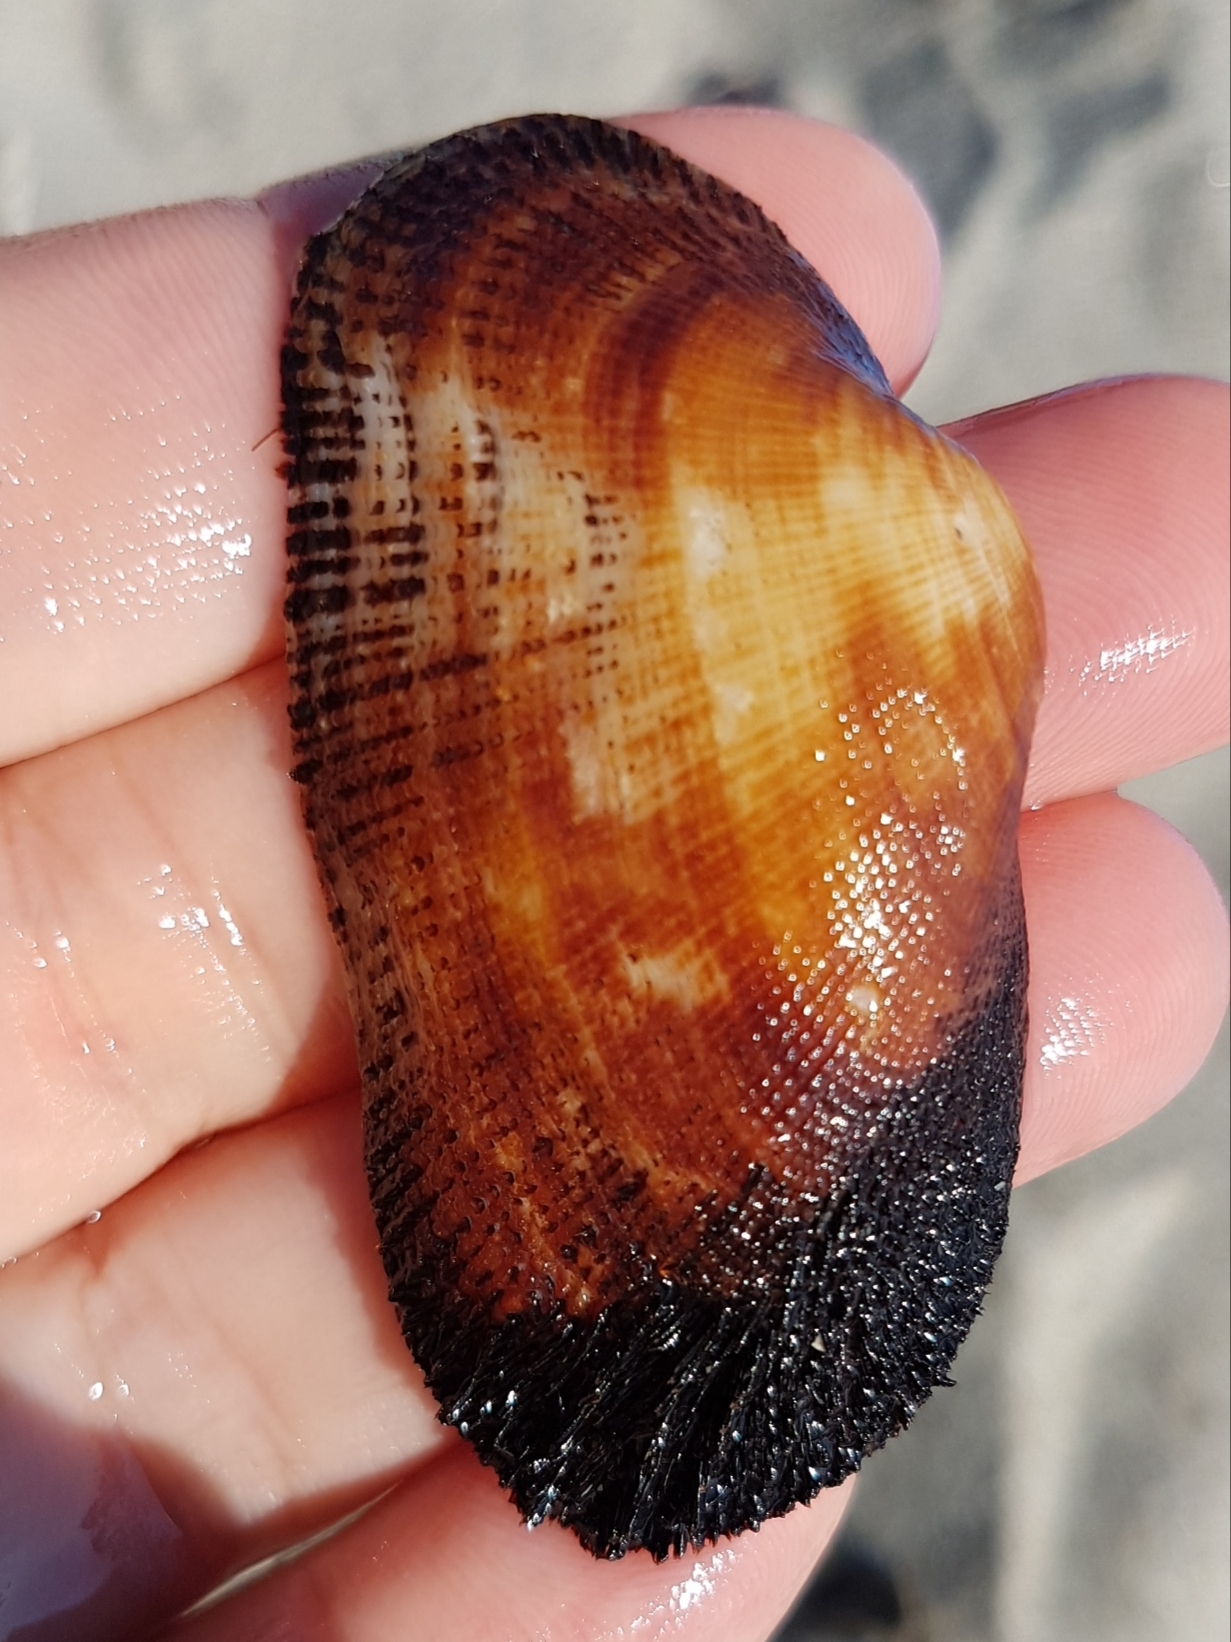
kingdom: Animalia
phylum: Mollusca
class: Bivalvia
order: Arcida
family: Arcidae
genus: Barbatia
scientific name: Barbatia barbata
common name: Bearded ark
